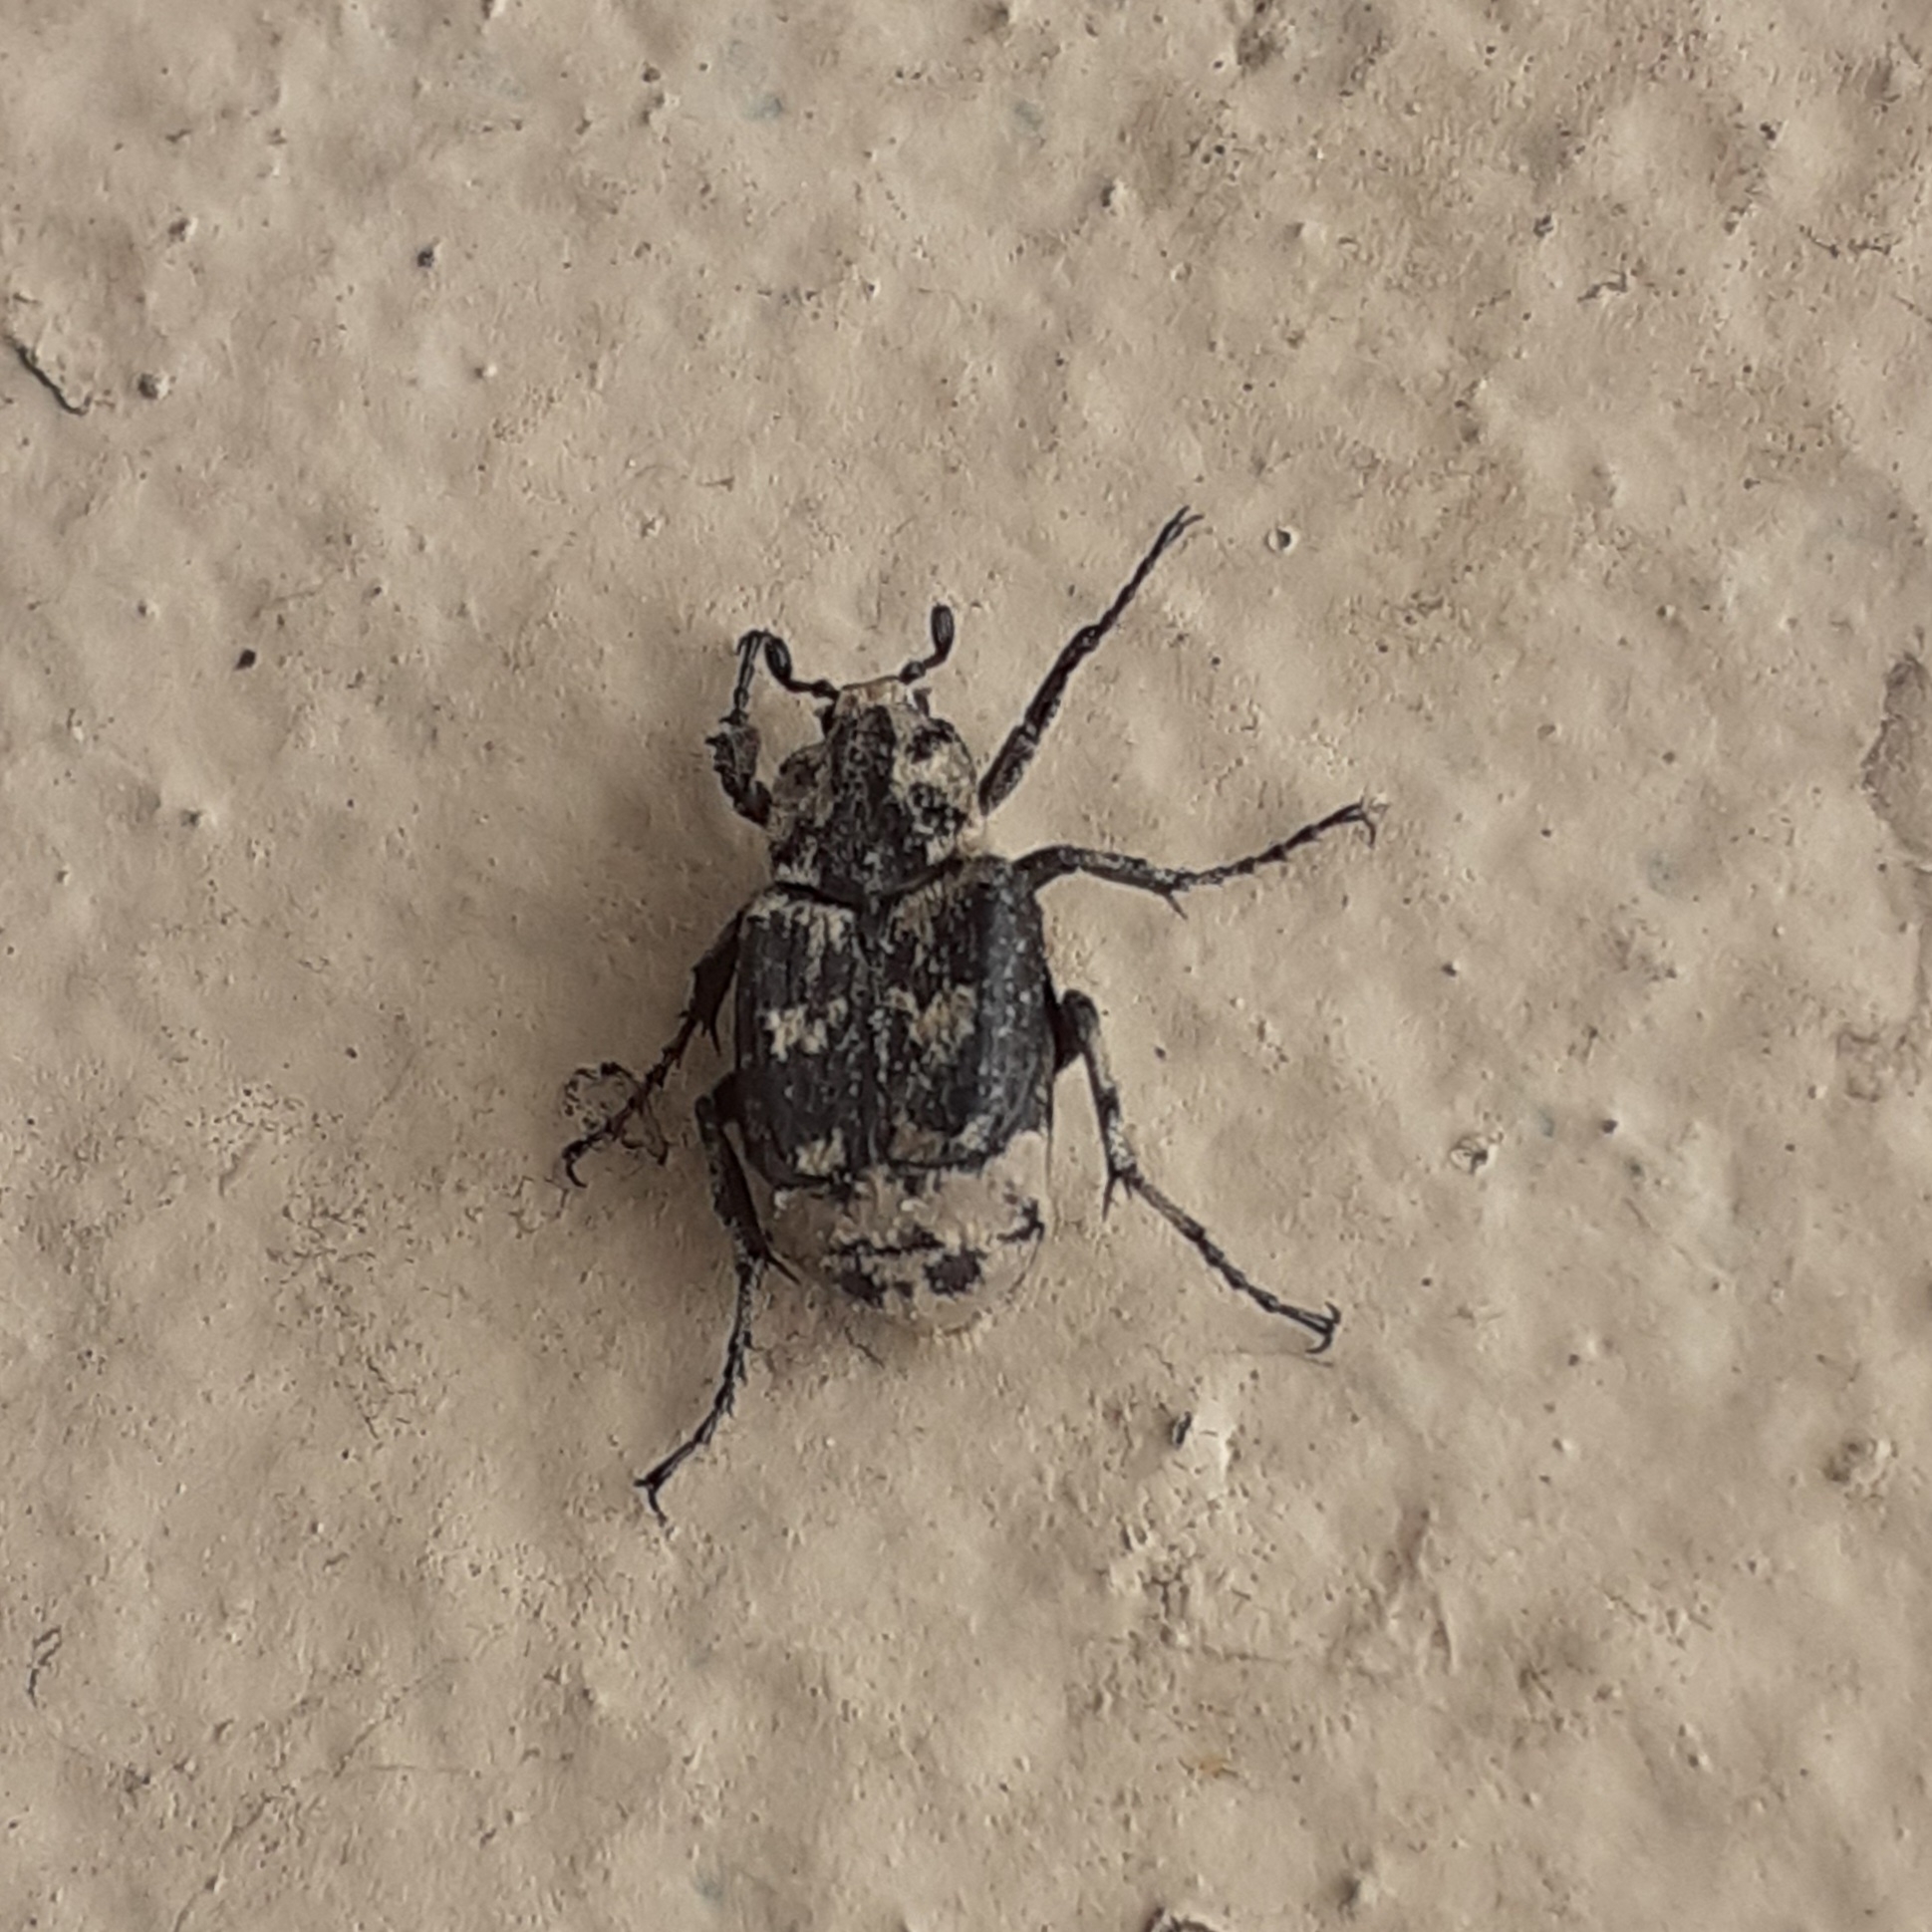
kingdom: Animalia
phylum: Arthropoda
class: Insecta
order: Coleoptera
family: Scarabaeidae
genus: Valgus
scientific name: Valgus hemipterus
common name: Bug flower chafer
